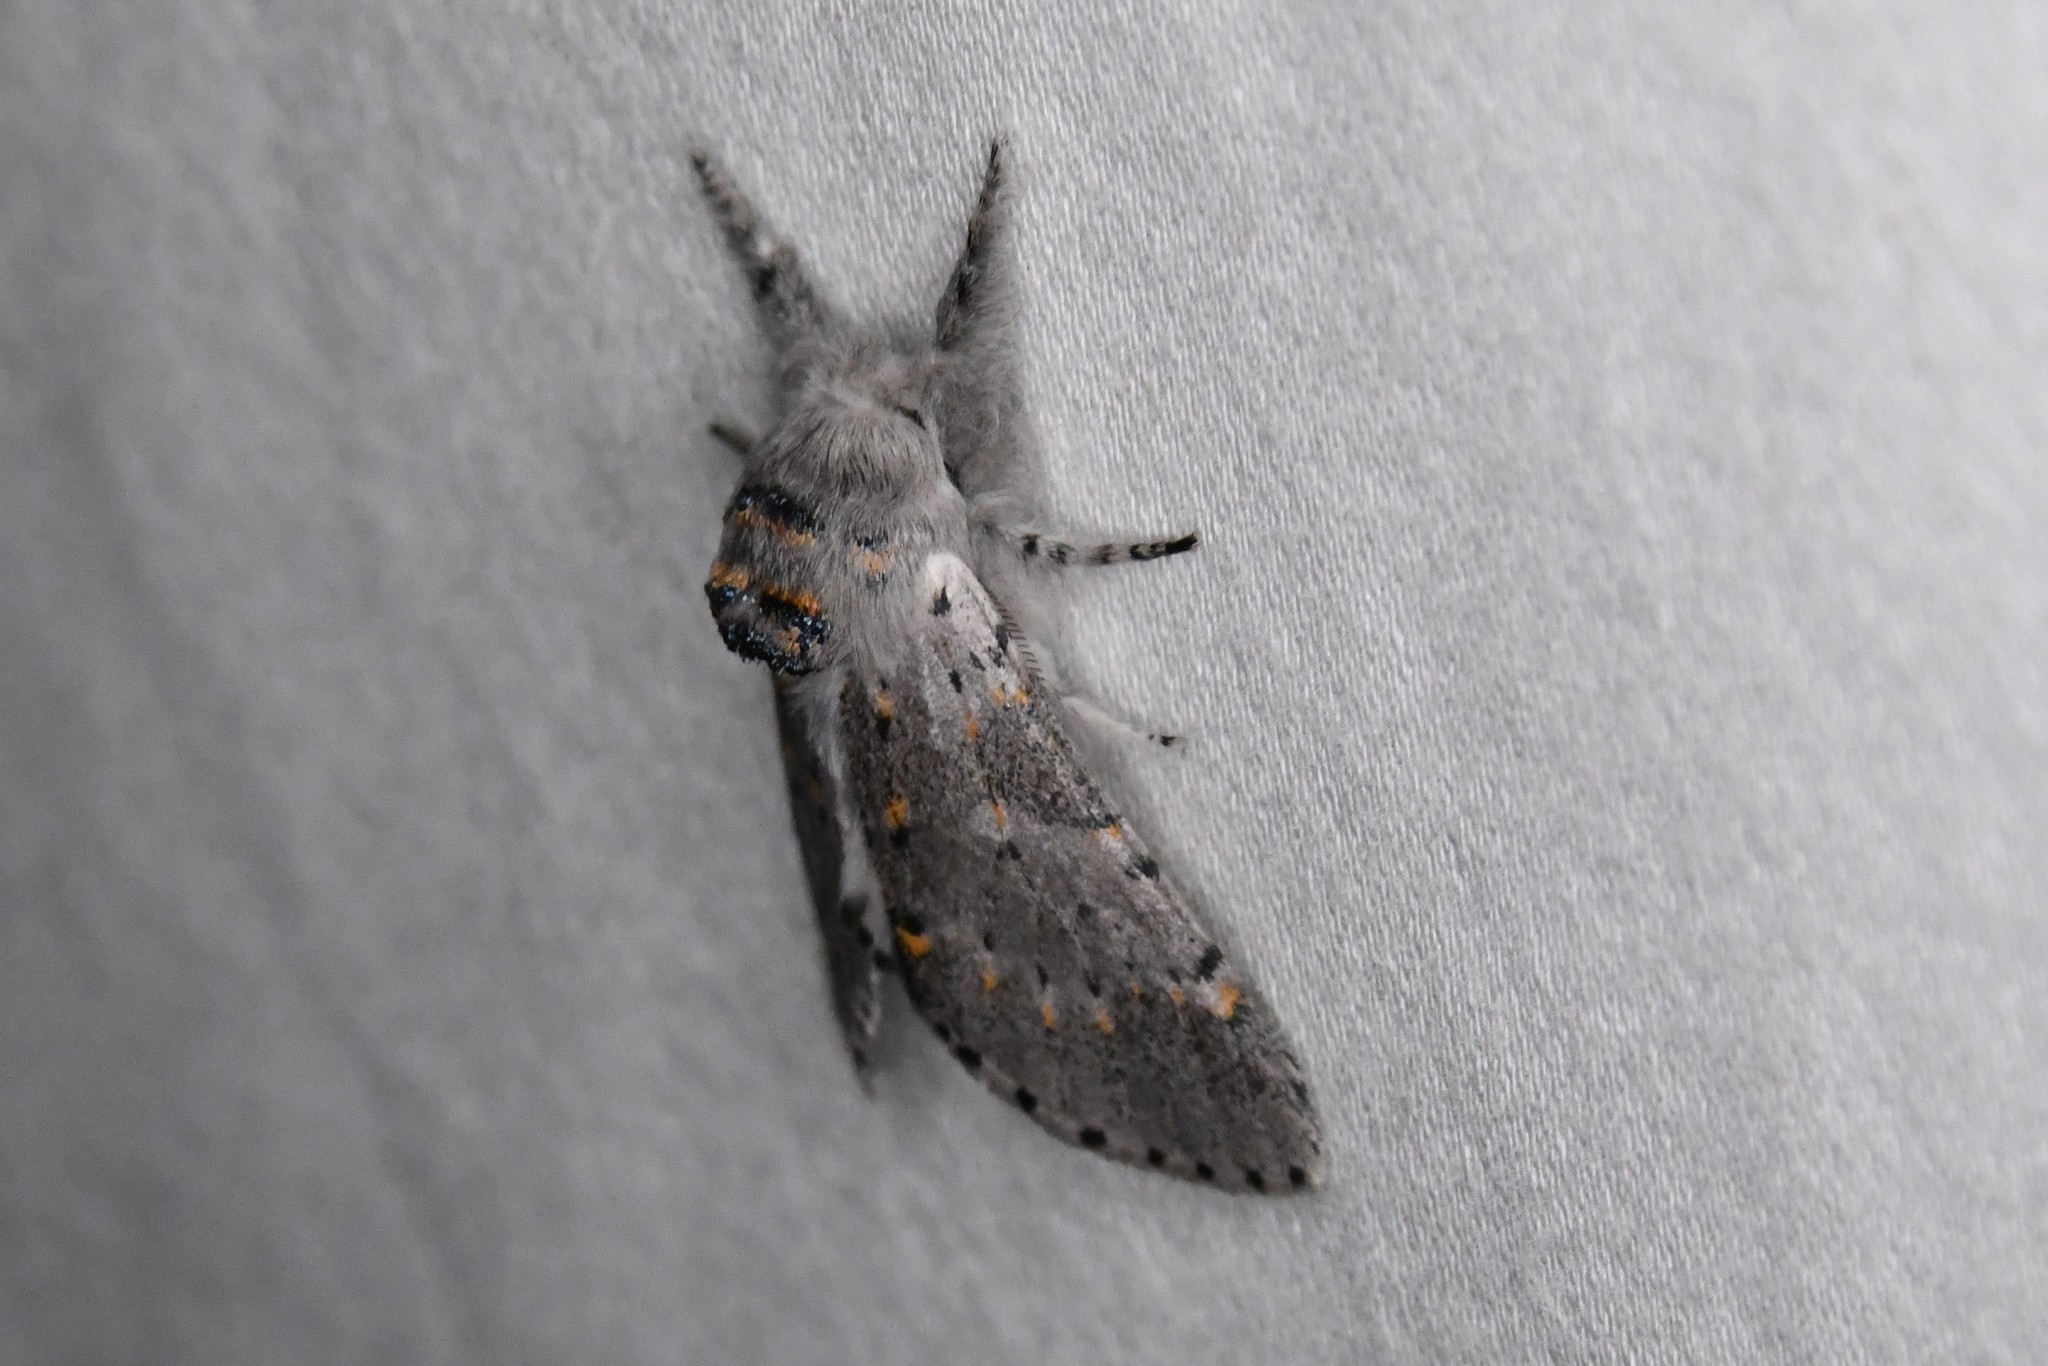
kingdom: Animalia
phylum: Arthropoda
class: Insecta
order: Lepidoptera
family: Notodontidae
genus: Furcula
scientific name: Furcula cinerea
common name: Gray furcula
